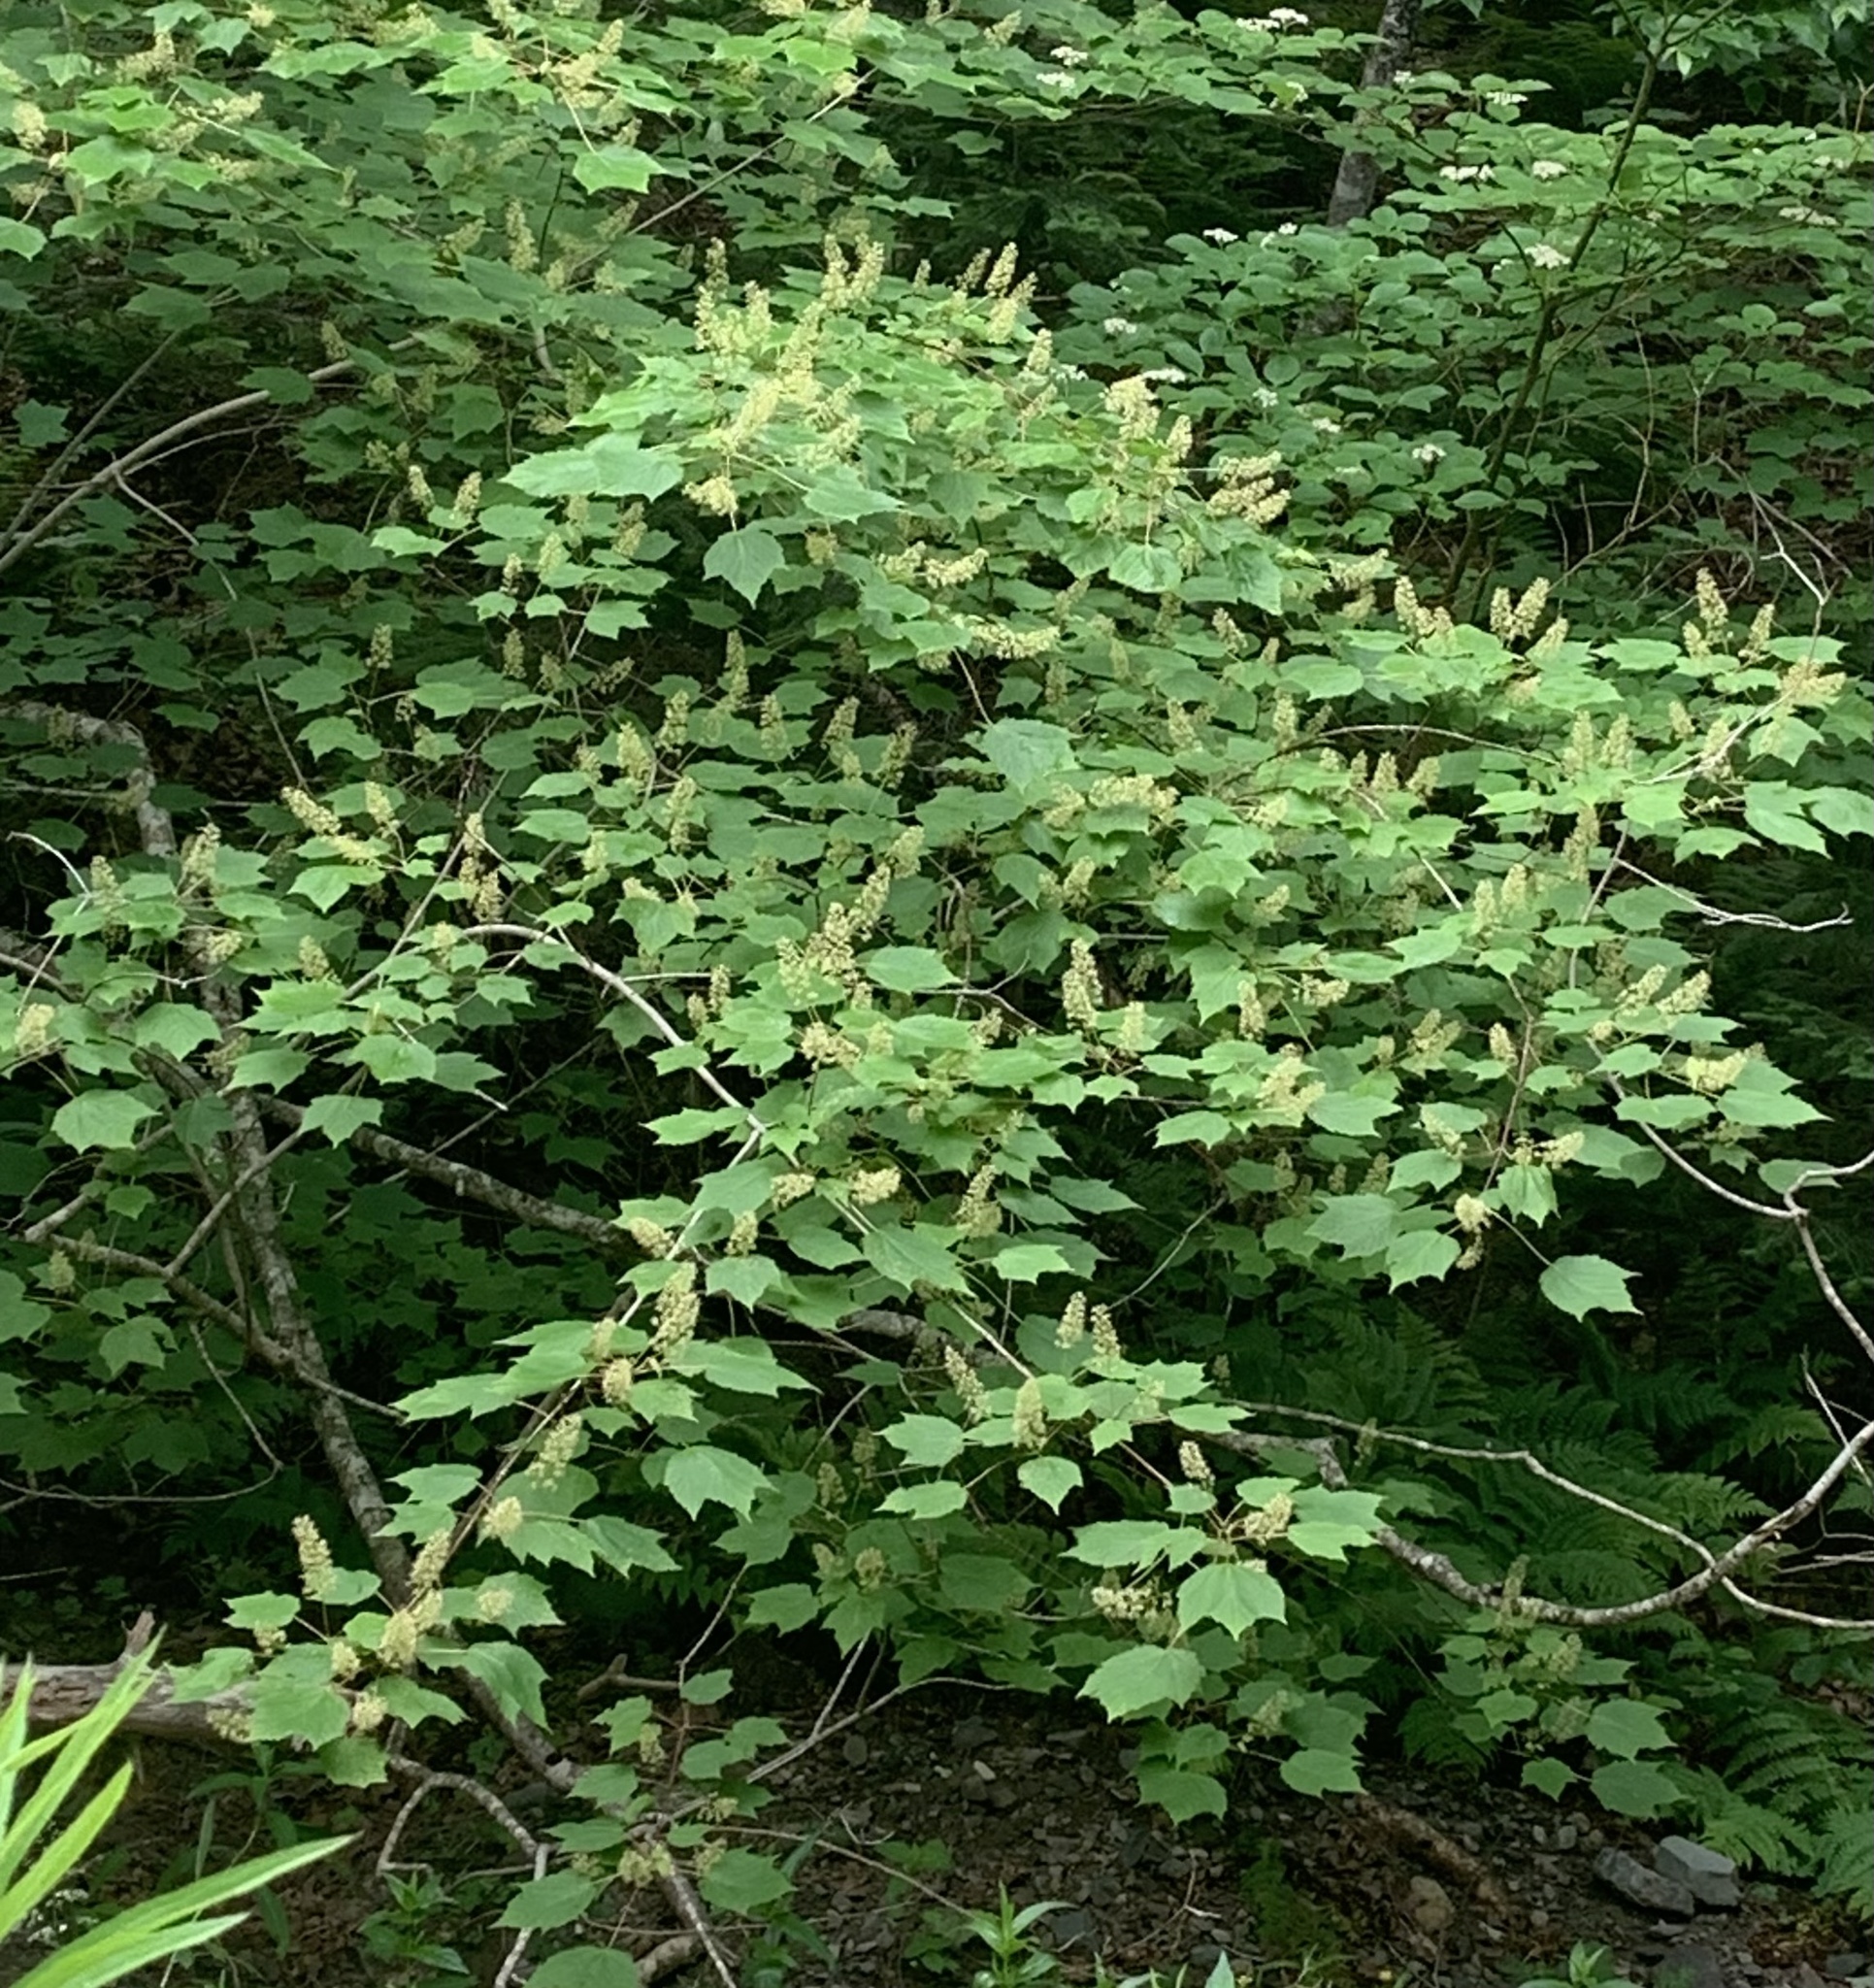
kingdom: Plantae
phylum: Tracheophyta
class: Magnoliopsida
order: Sapindales
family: Sapindaceae
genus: Acer
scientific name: Acer spicatum
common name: Mountain maple
